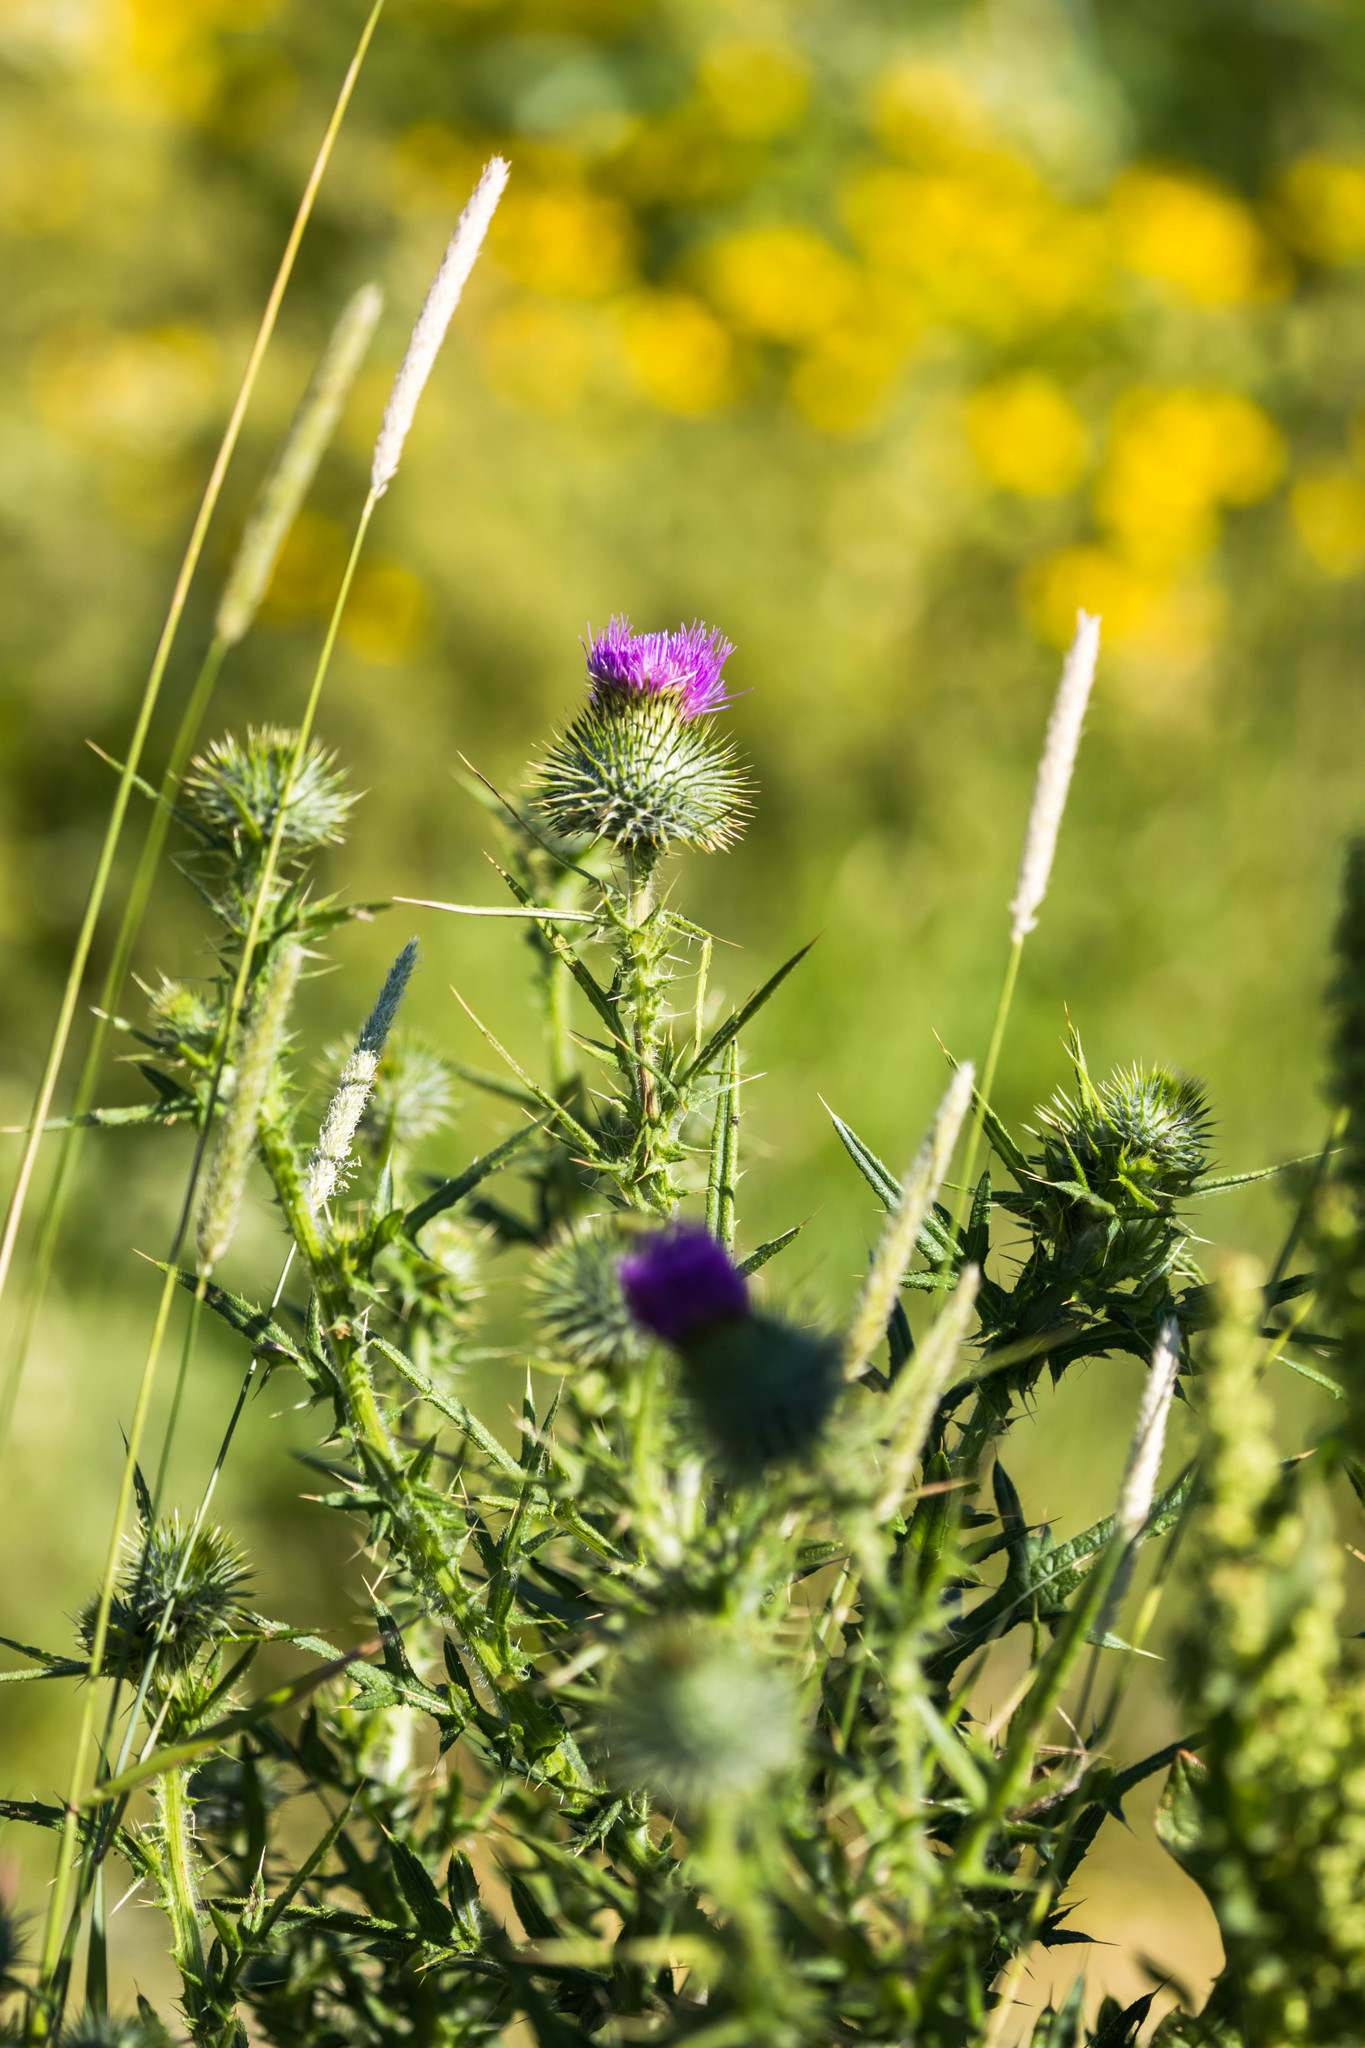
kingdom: Plantae
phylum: Tracheophyta
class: Magnoliopsida
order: Asterales
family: Asteraceae
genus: Cirsium
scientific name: Cirsium vulgare
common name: Bull thistle
